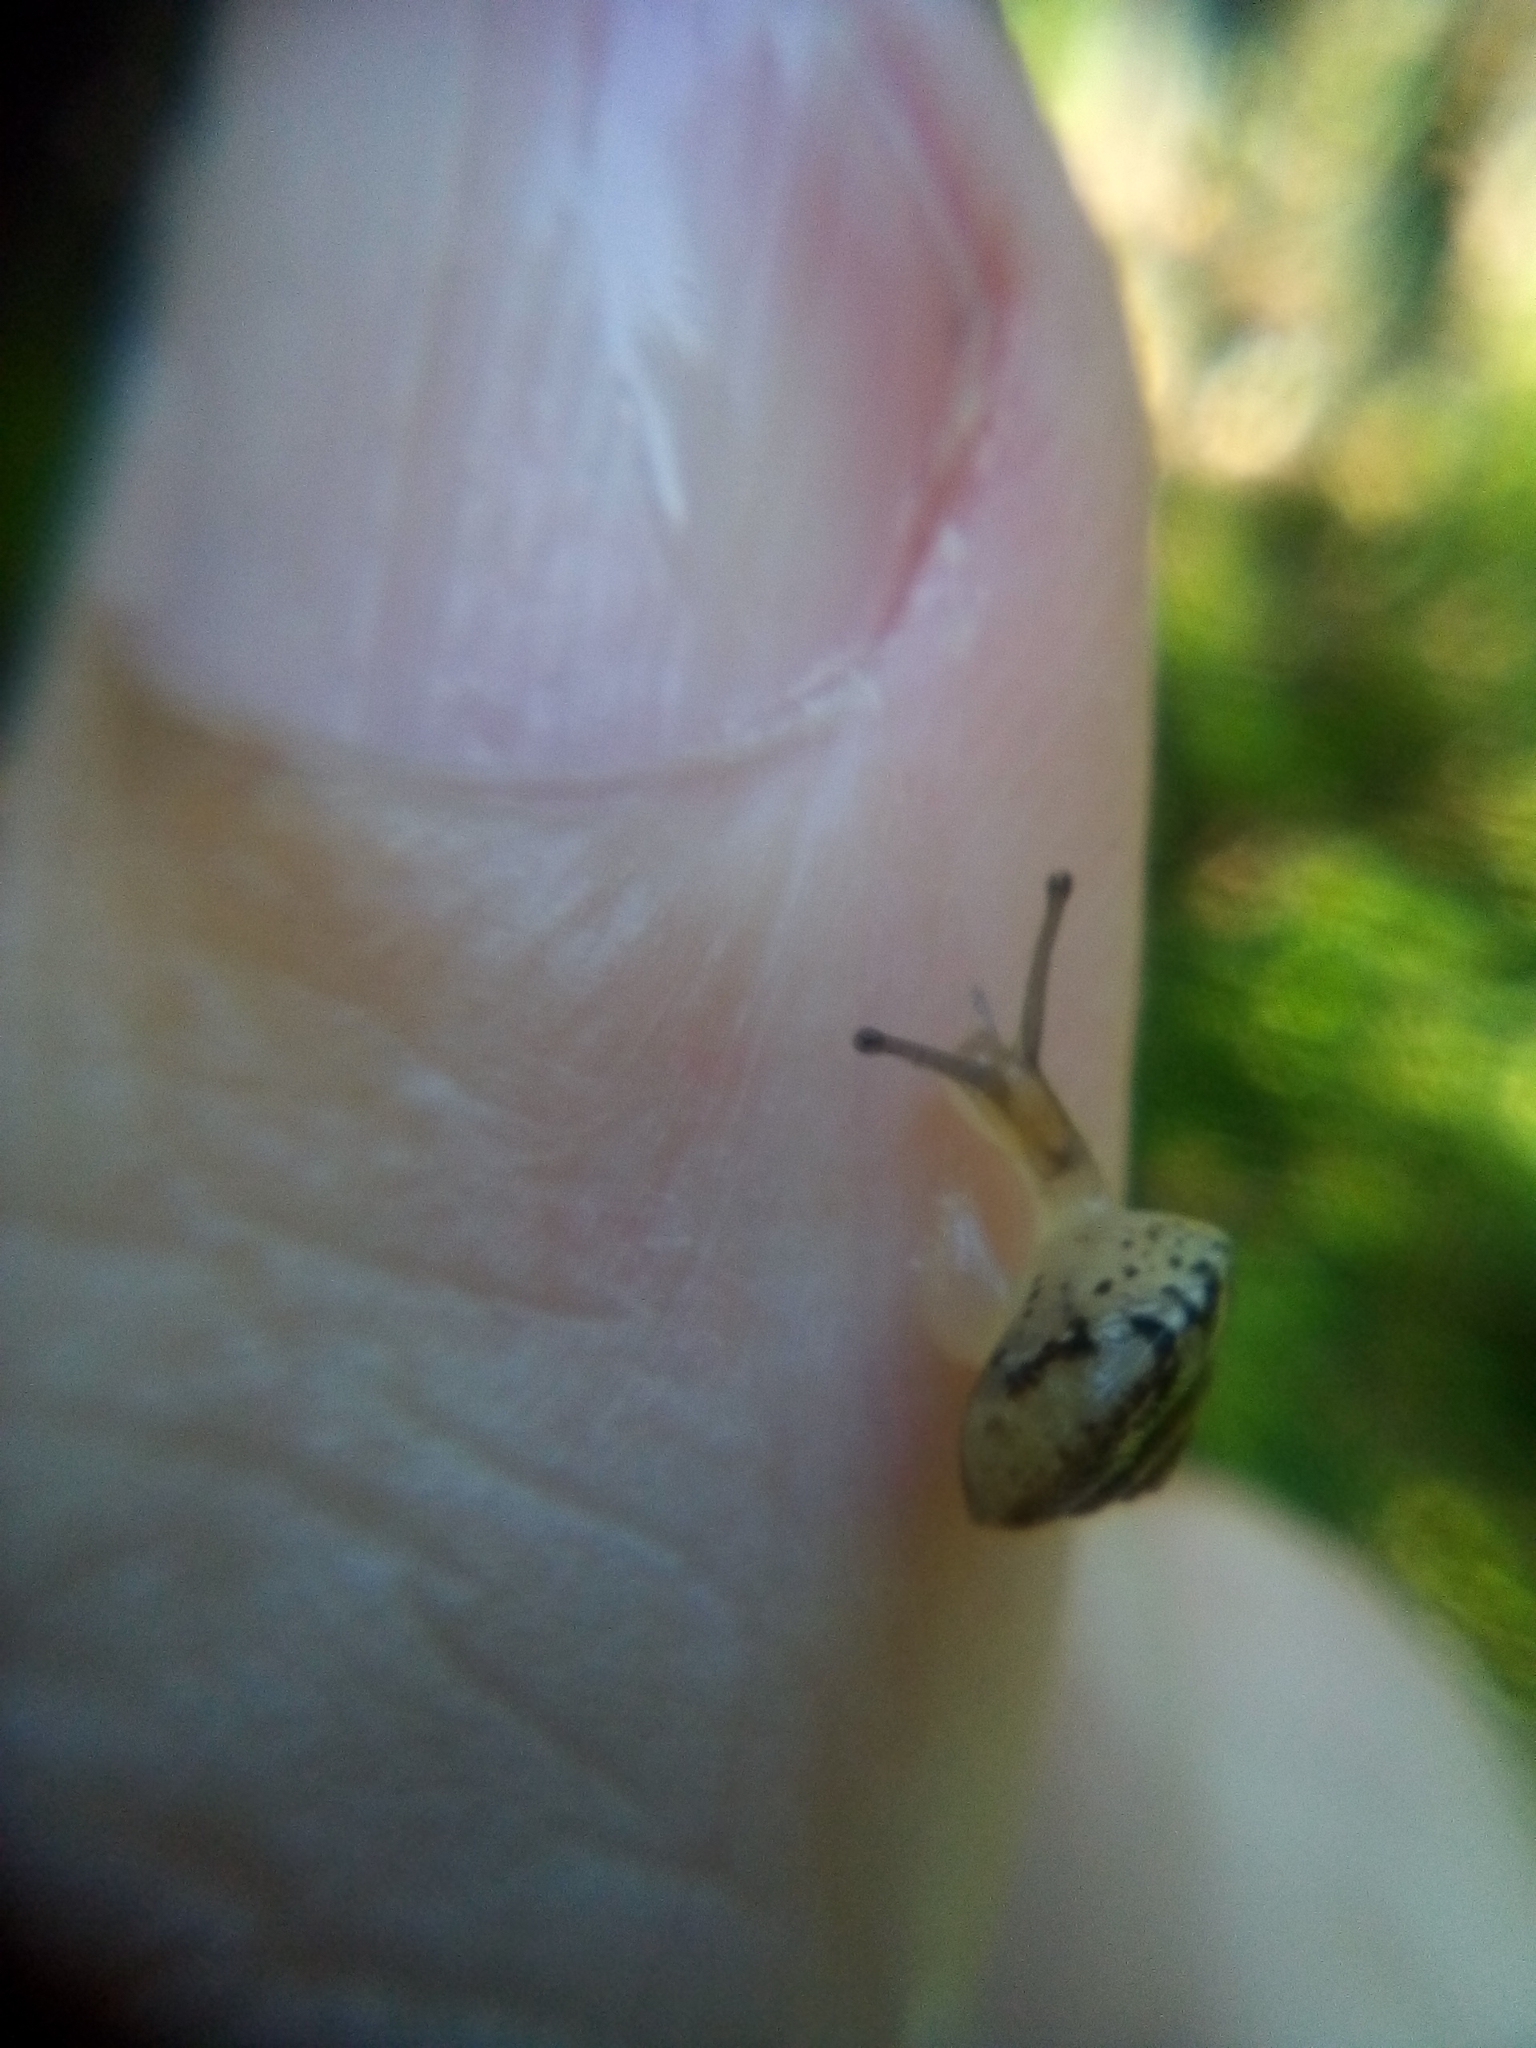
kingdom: Animalia
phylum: Mollusca
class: Gastropoda
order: Stylommatophora
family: Hygromiidae
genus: Hygromia
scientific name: Hygromia cinctella
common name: Girdled snail
